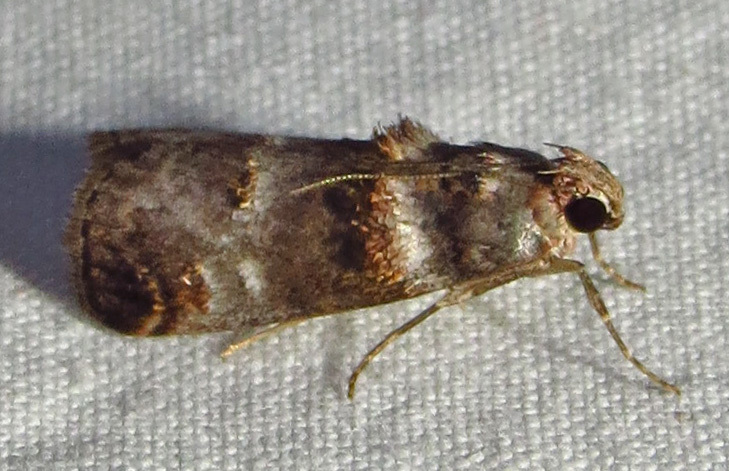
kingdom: Animalia
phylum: Arthropoda
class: Insecta
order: Lepidoptera
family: Pyralidae
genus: Oneida
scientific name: Oneida lunulalis
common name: Orange-tufted oneida moth
